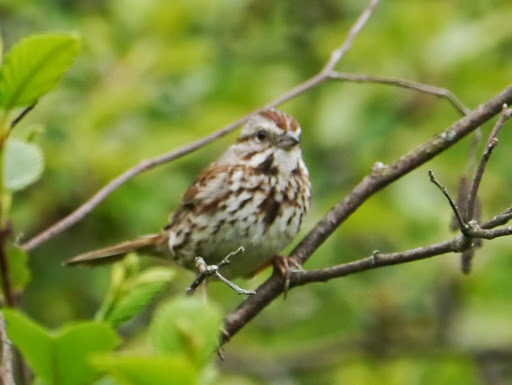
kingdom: Animalia
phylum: Chordata
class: Aves
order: Passeriformes
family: Passerellidae
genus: Melospiza
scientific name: Melospiza melodia
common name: Song sparrow
